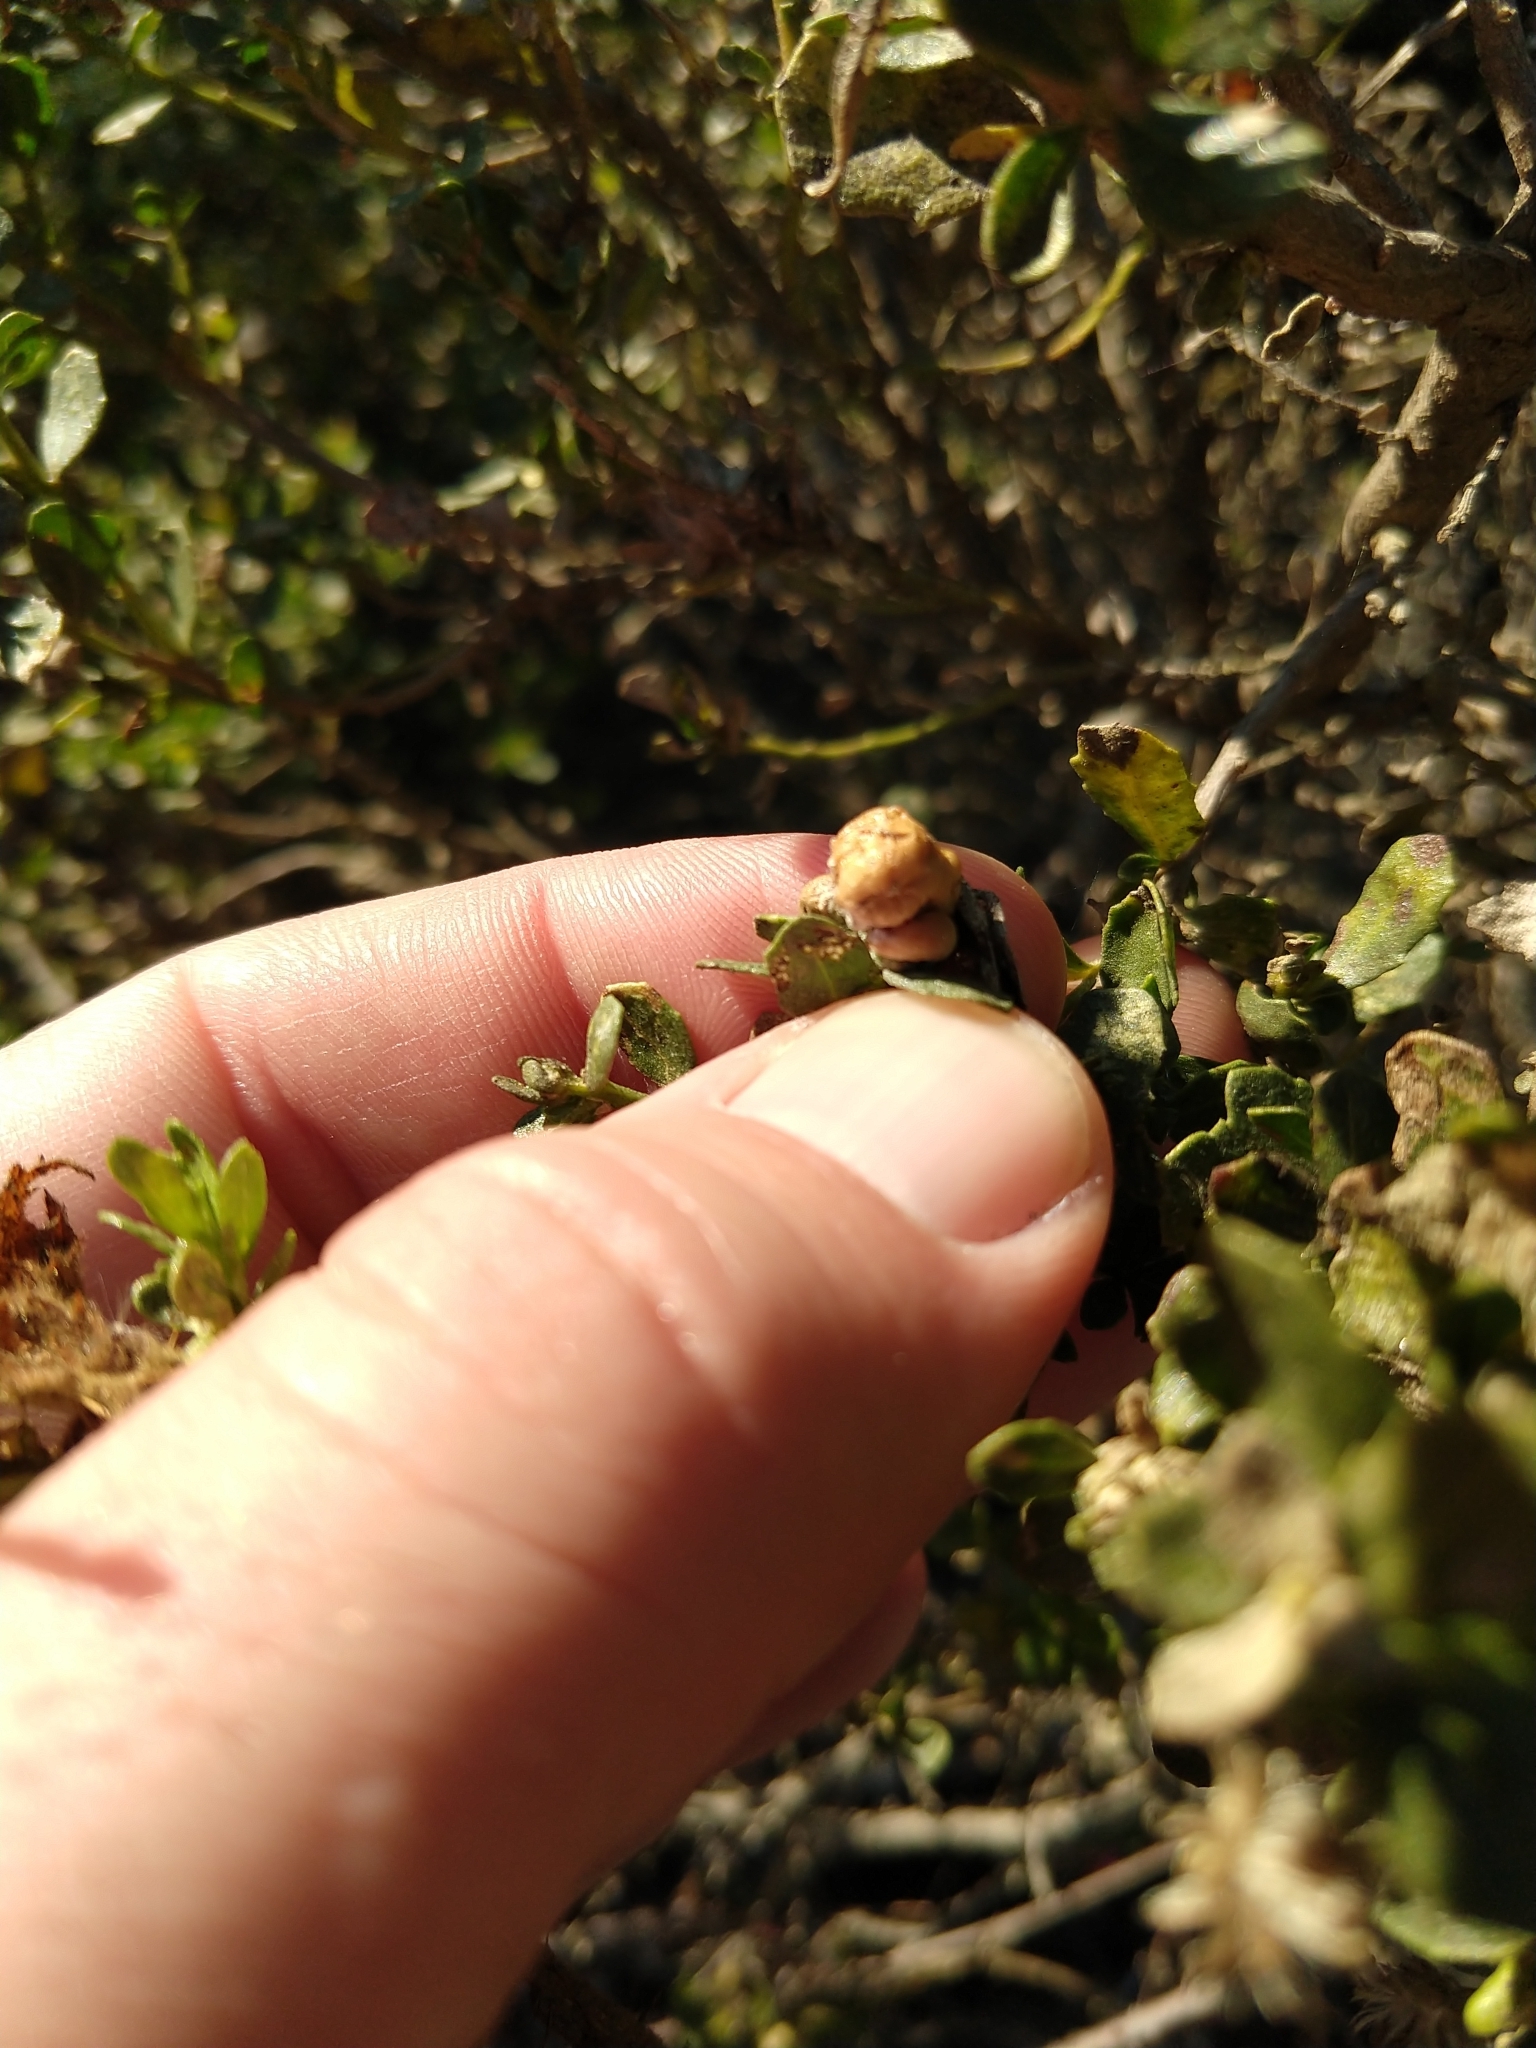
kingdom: Animalia
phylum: Arthropoda
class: Insecta
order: Diptera
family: Cecidomyiidae
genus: Rhopalomyia
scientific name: Rhopalomyia californica
